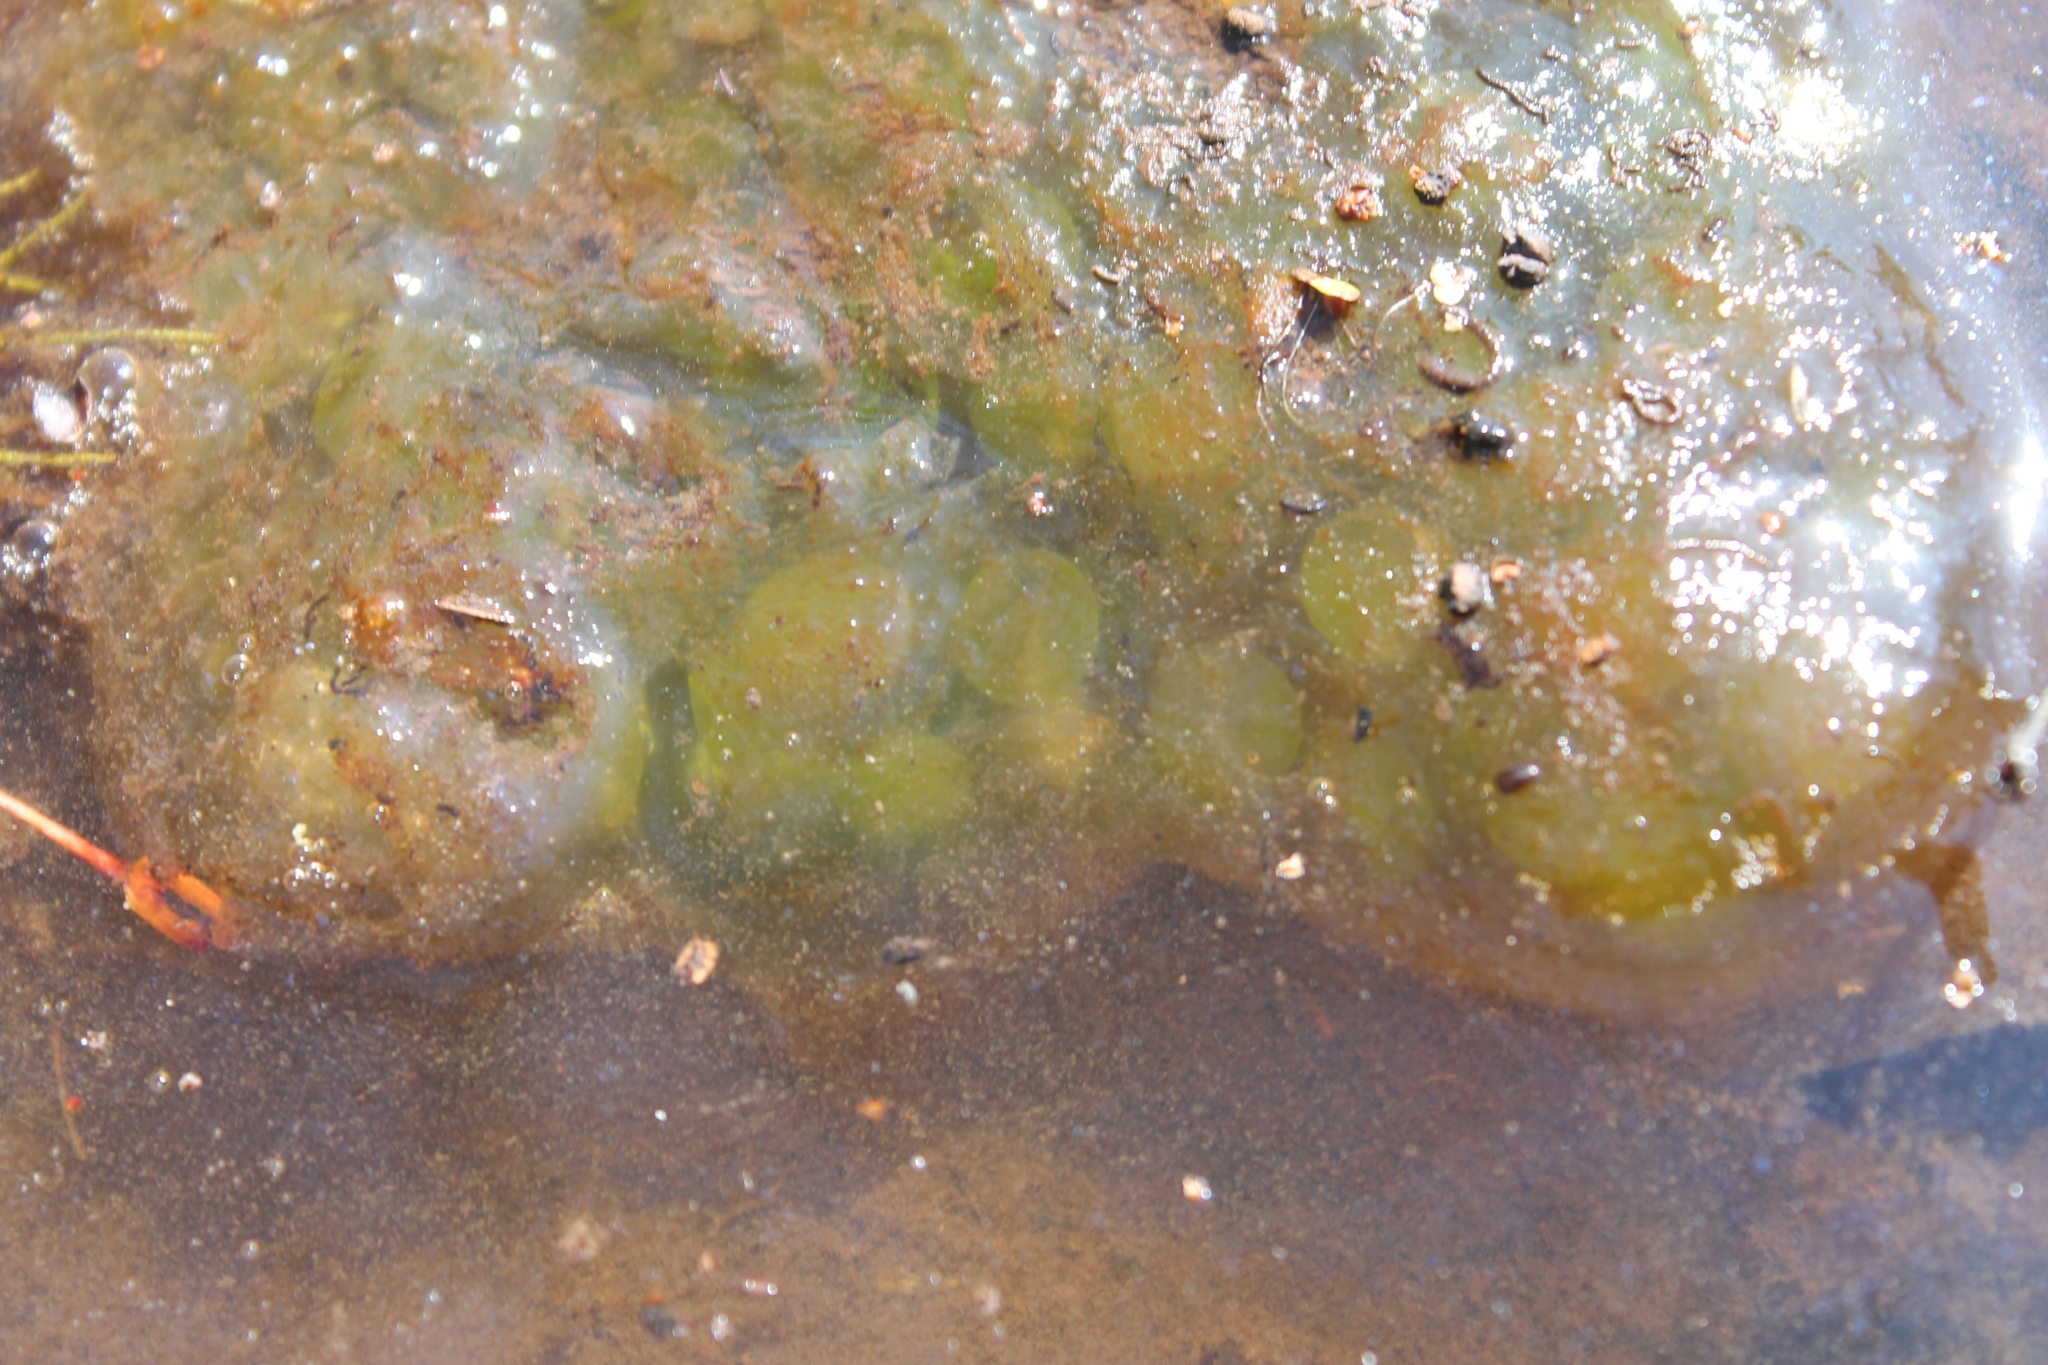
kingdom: Plantae
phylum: Chlorophyta
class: Chlorophyceae
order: Chlamydomonadales
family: Chlorococcaceae
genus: Oophila
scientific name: Oophila amblystomatis
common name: Salamander algae
